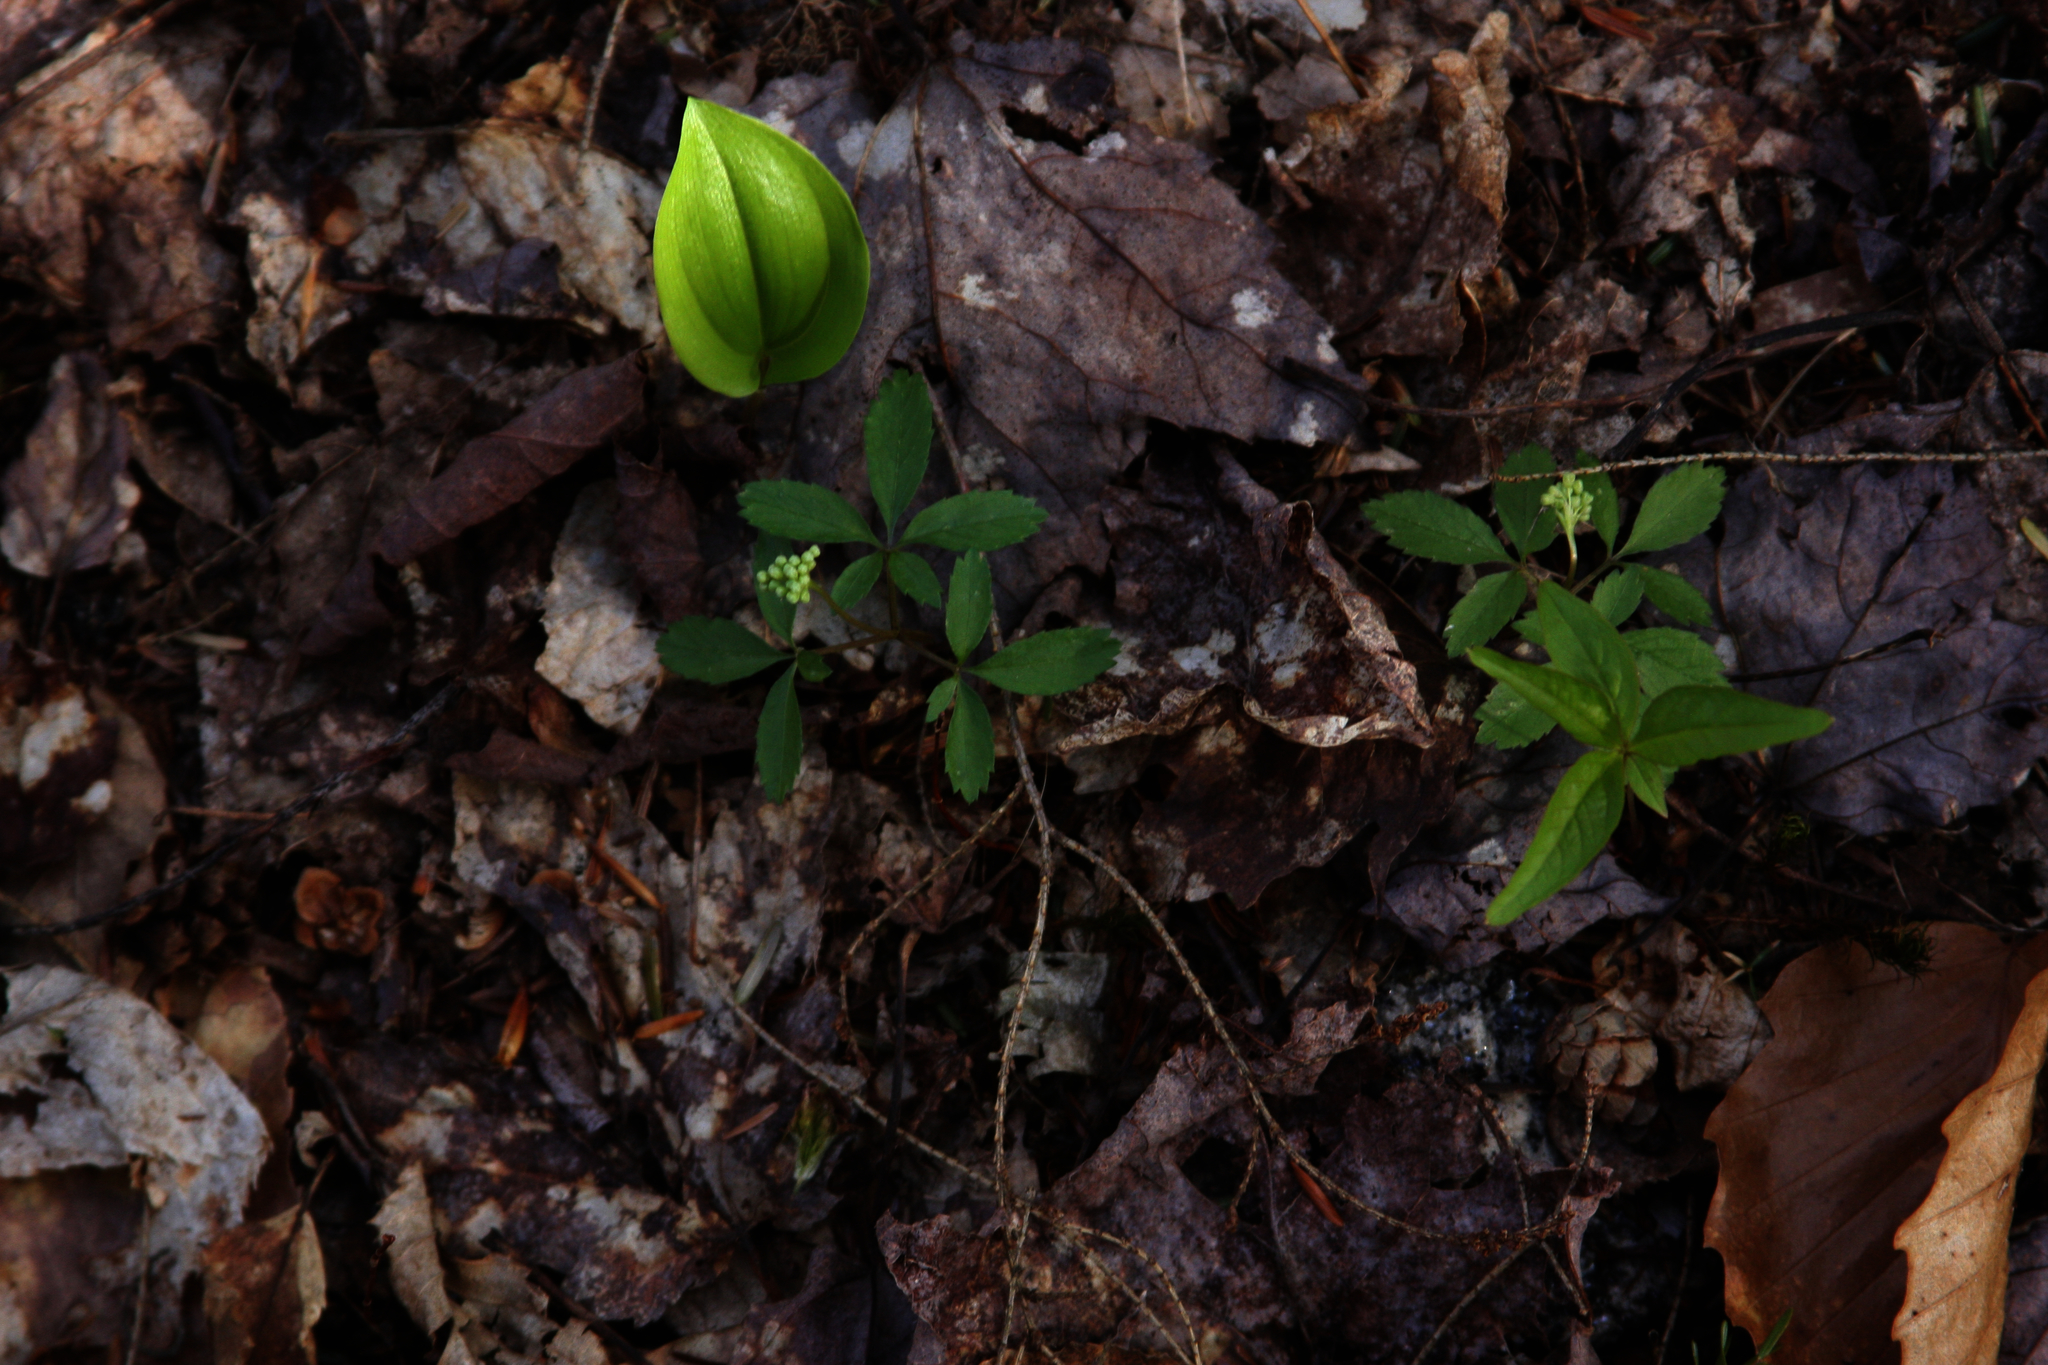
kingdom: Plantae
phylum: Tracheophyta
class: Magnoliopsida
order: Apiales
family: Araliaceae
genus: Panax
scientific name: Panax trifolius
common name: Dwarf ginseng
